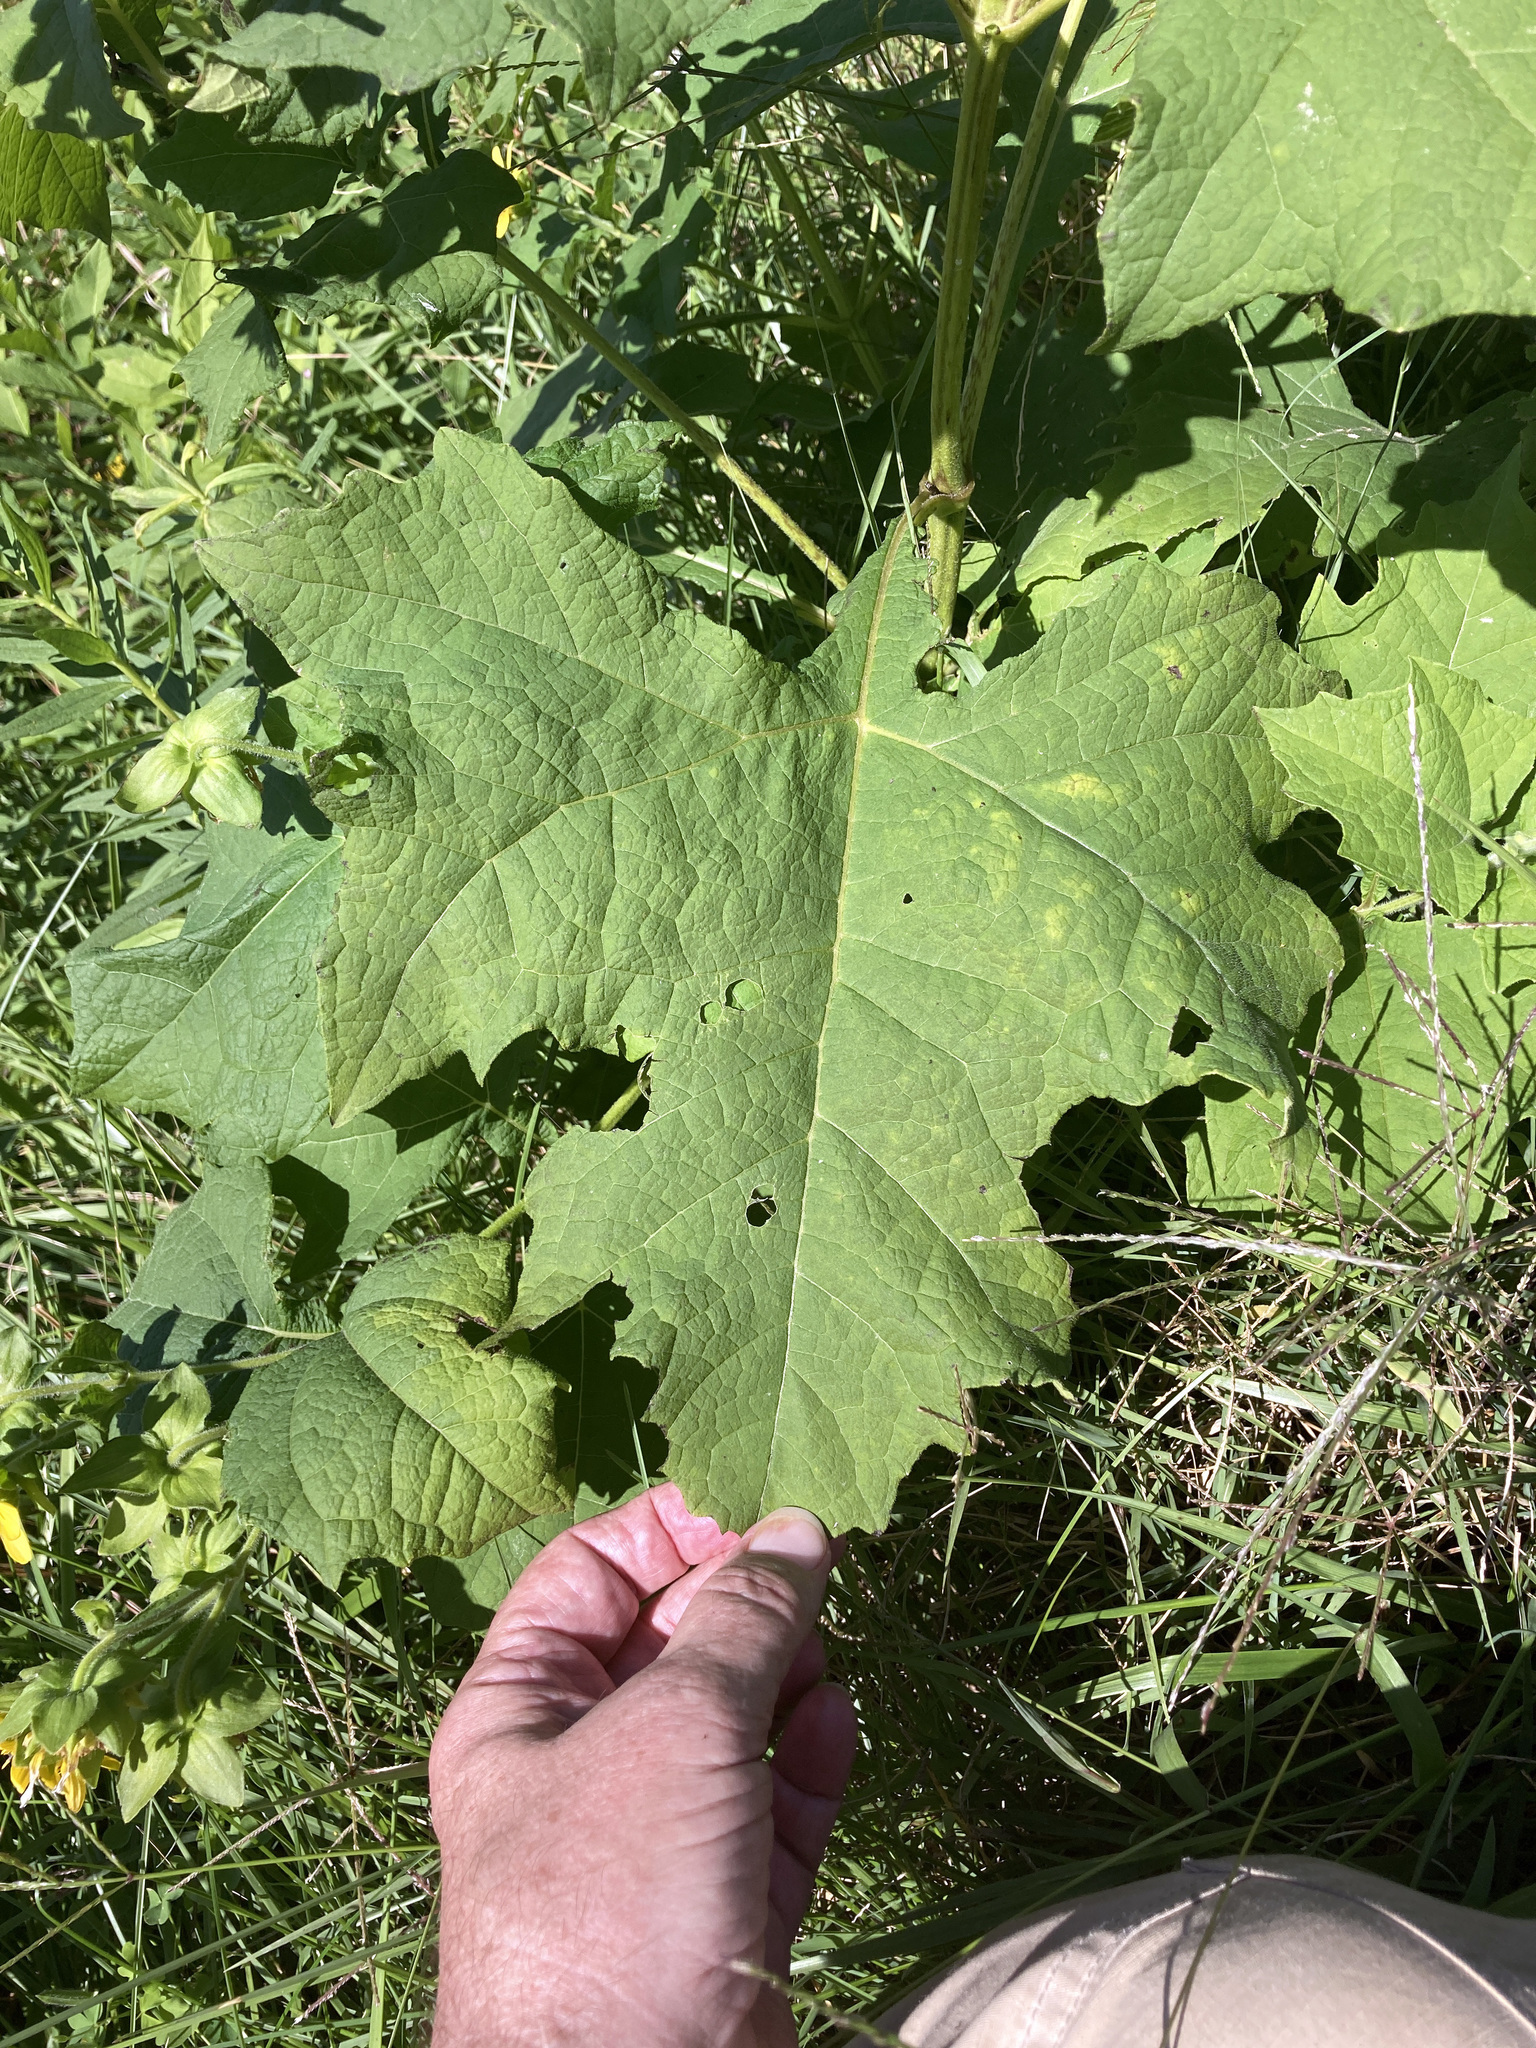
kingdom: Plantae
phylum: Tracheophyta
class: Magnoliopsida
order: Asterales
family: Asteraceae
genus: Smallanthus
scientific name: Smallanthus uvedalia
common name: Bear's-foot
